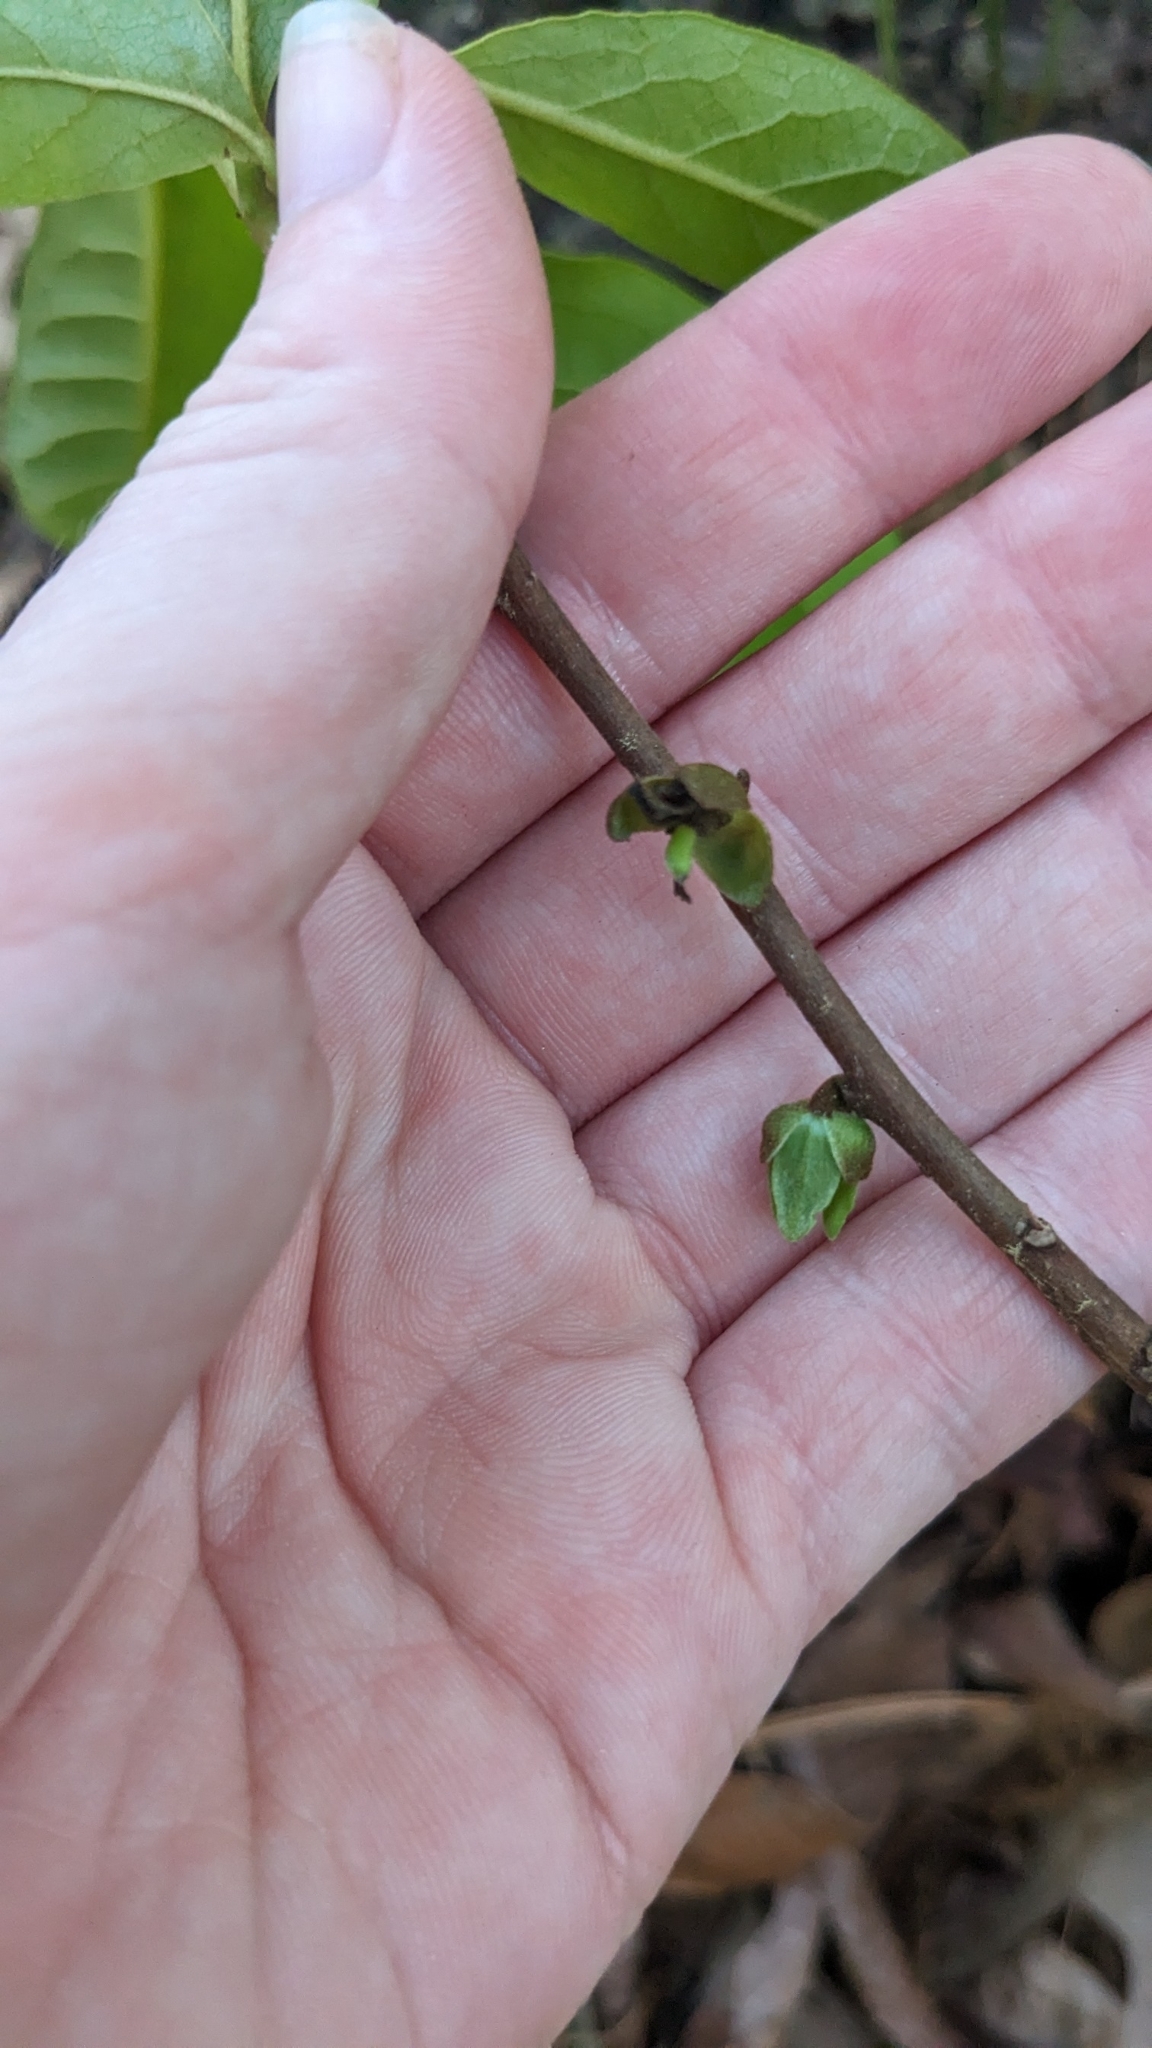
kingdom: Plantae
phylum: Tracheophyta
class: Magnoliopsida
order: Magnoliales
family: Annonaceae
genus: Asimina
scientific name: Asimina parviflora
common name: Dwarf pawpaw
